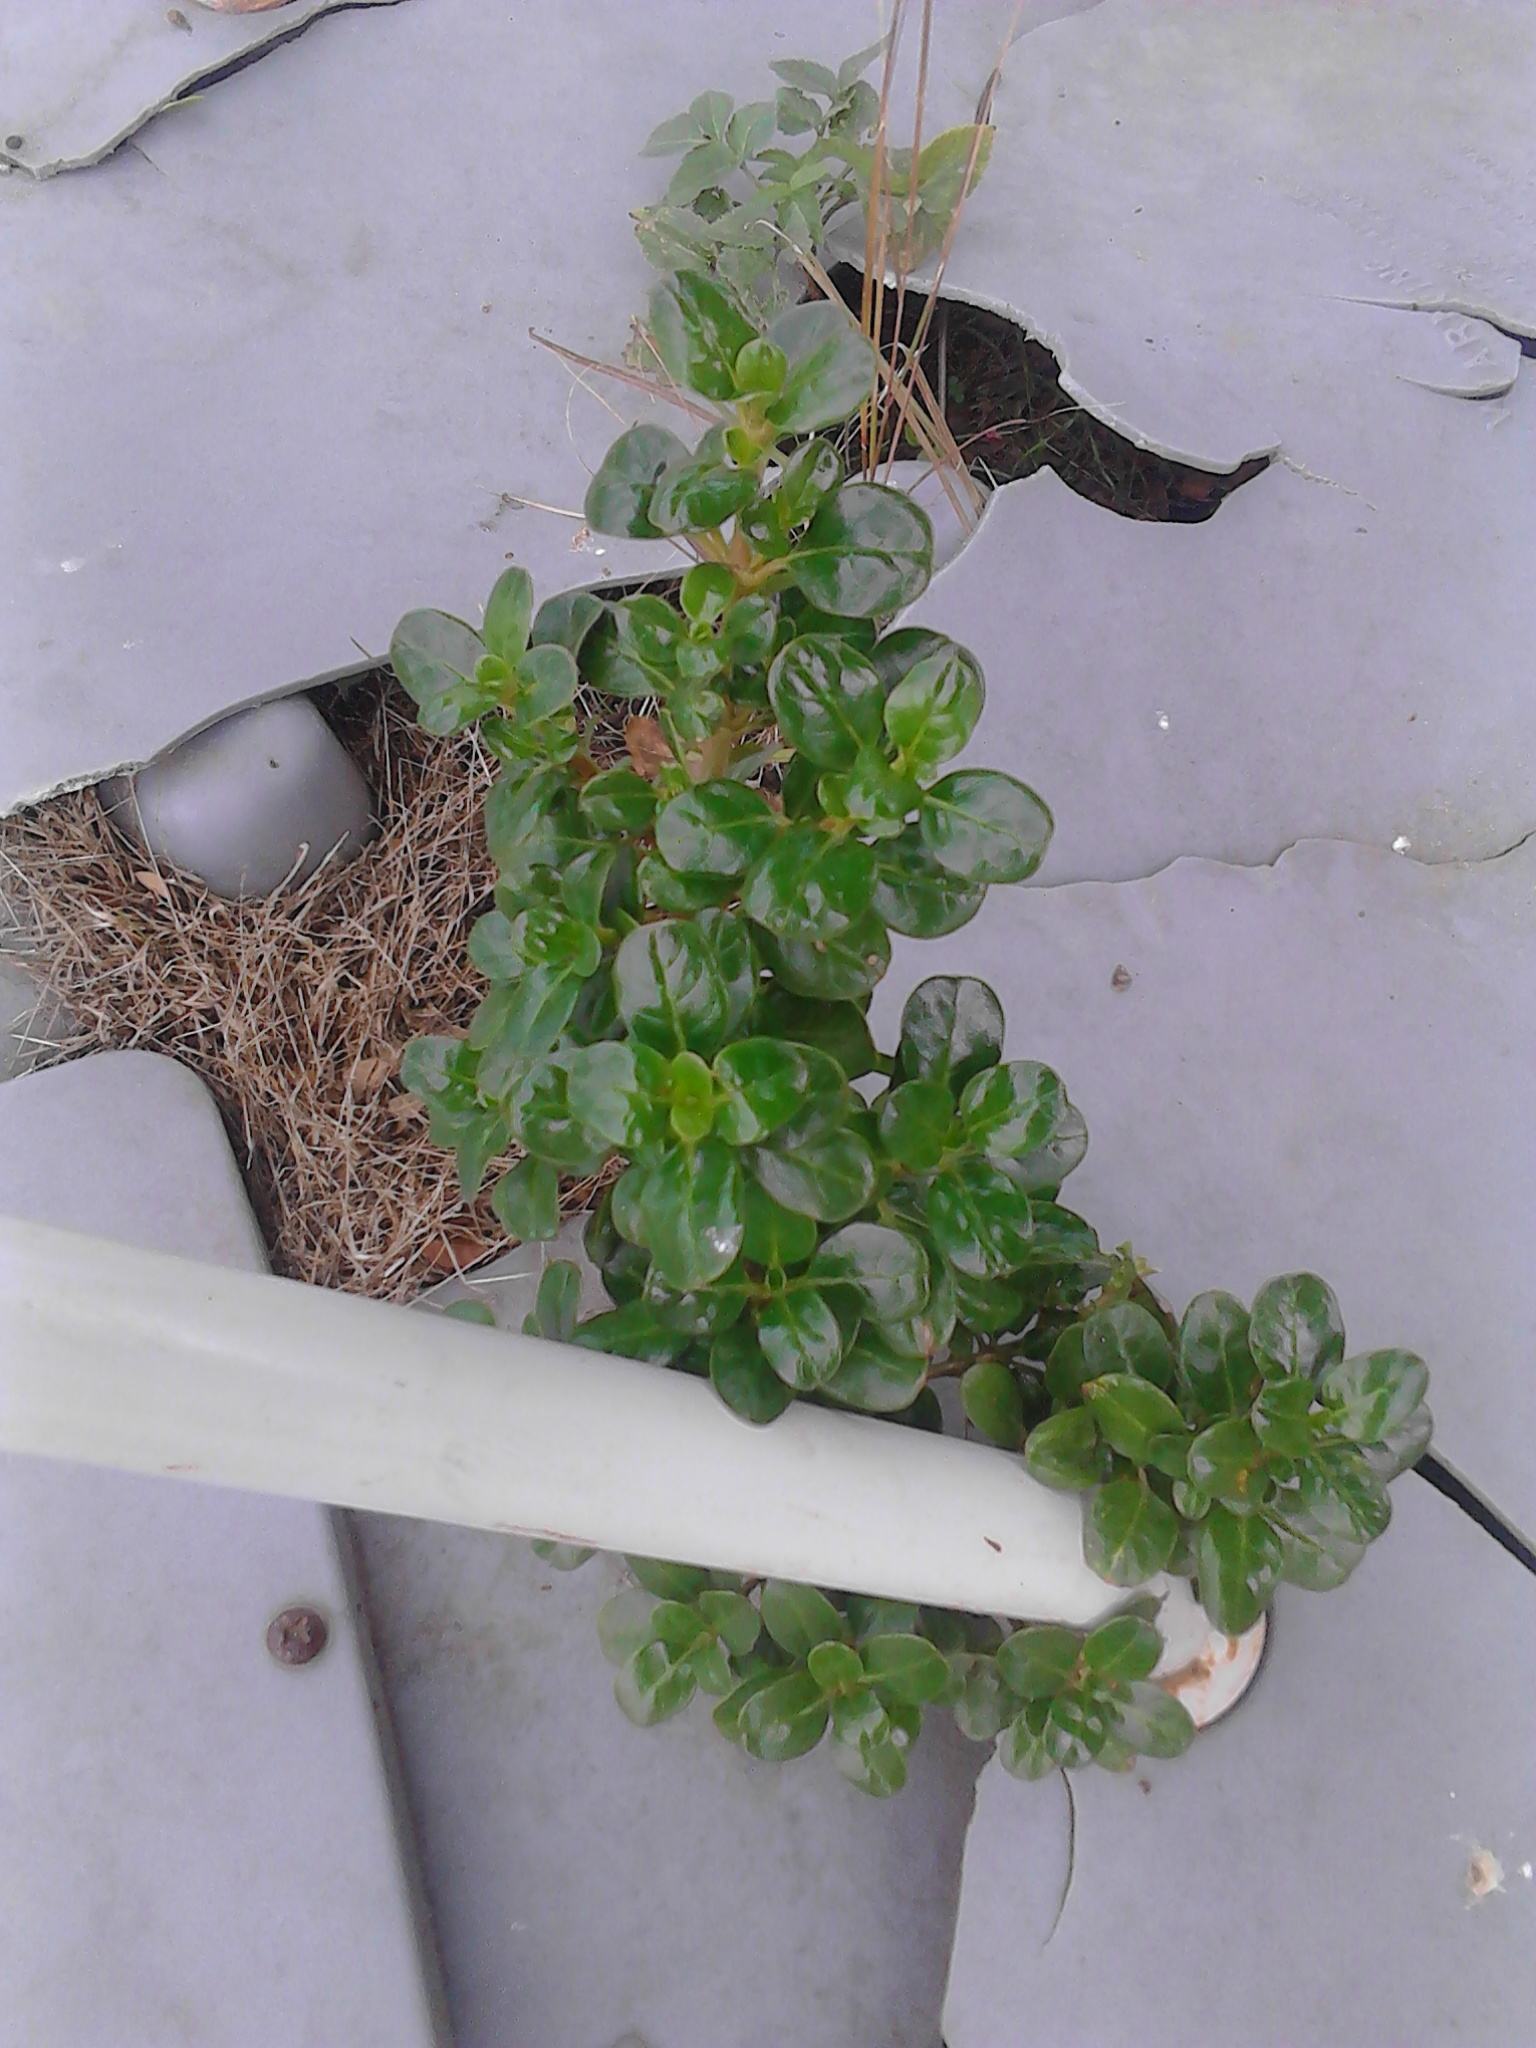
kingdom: Plantae
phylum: Tracheophyta
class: Magnoliopsida
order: Gentianales
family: Rubiaceae
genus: Coprosma
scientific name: Coprosma repens
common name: Tree bedstraw
